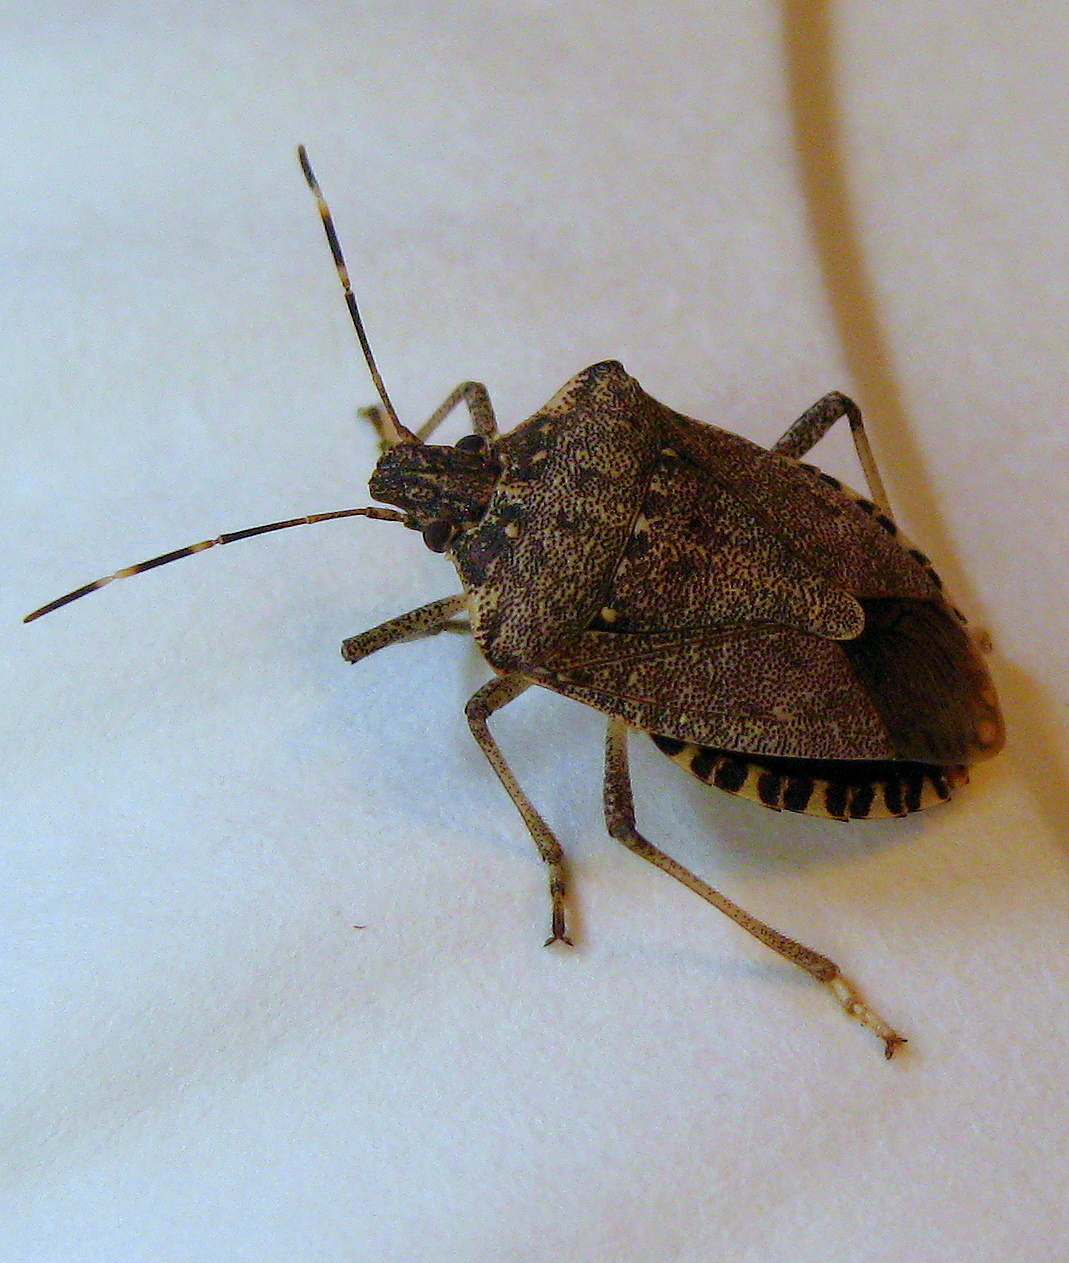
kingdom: Animalia
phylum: Arthropoda
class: Insecta
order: Hemiptera
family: Pentatomidae
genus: Halyomorpha
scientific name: Halyomorpha halys
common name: Brown marmorated stink bug
